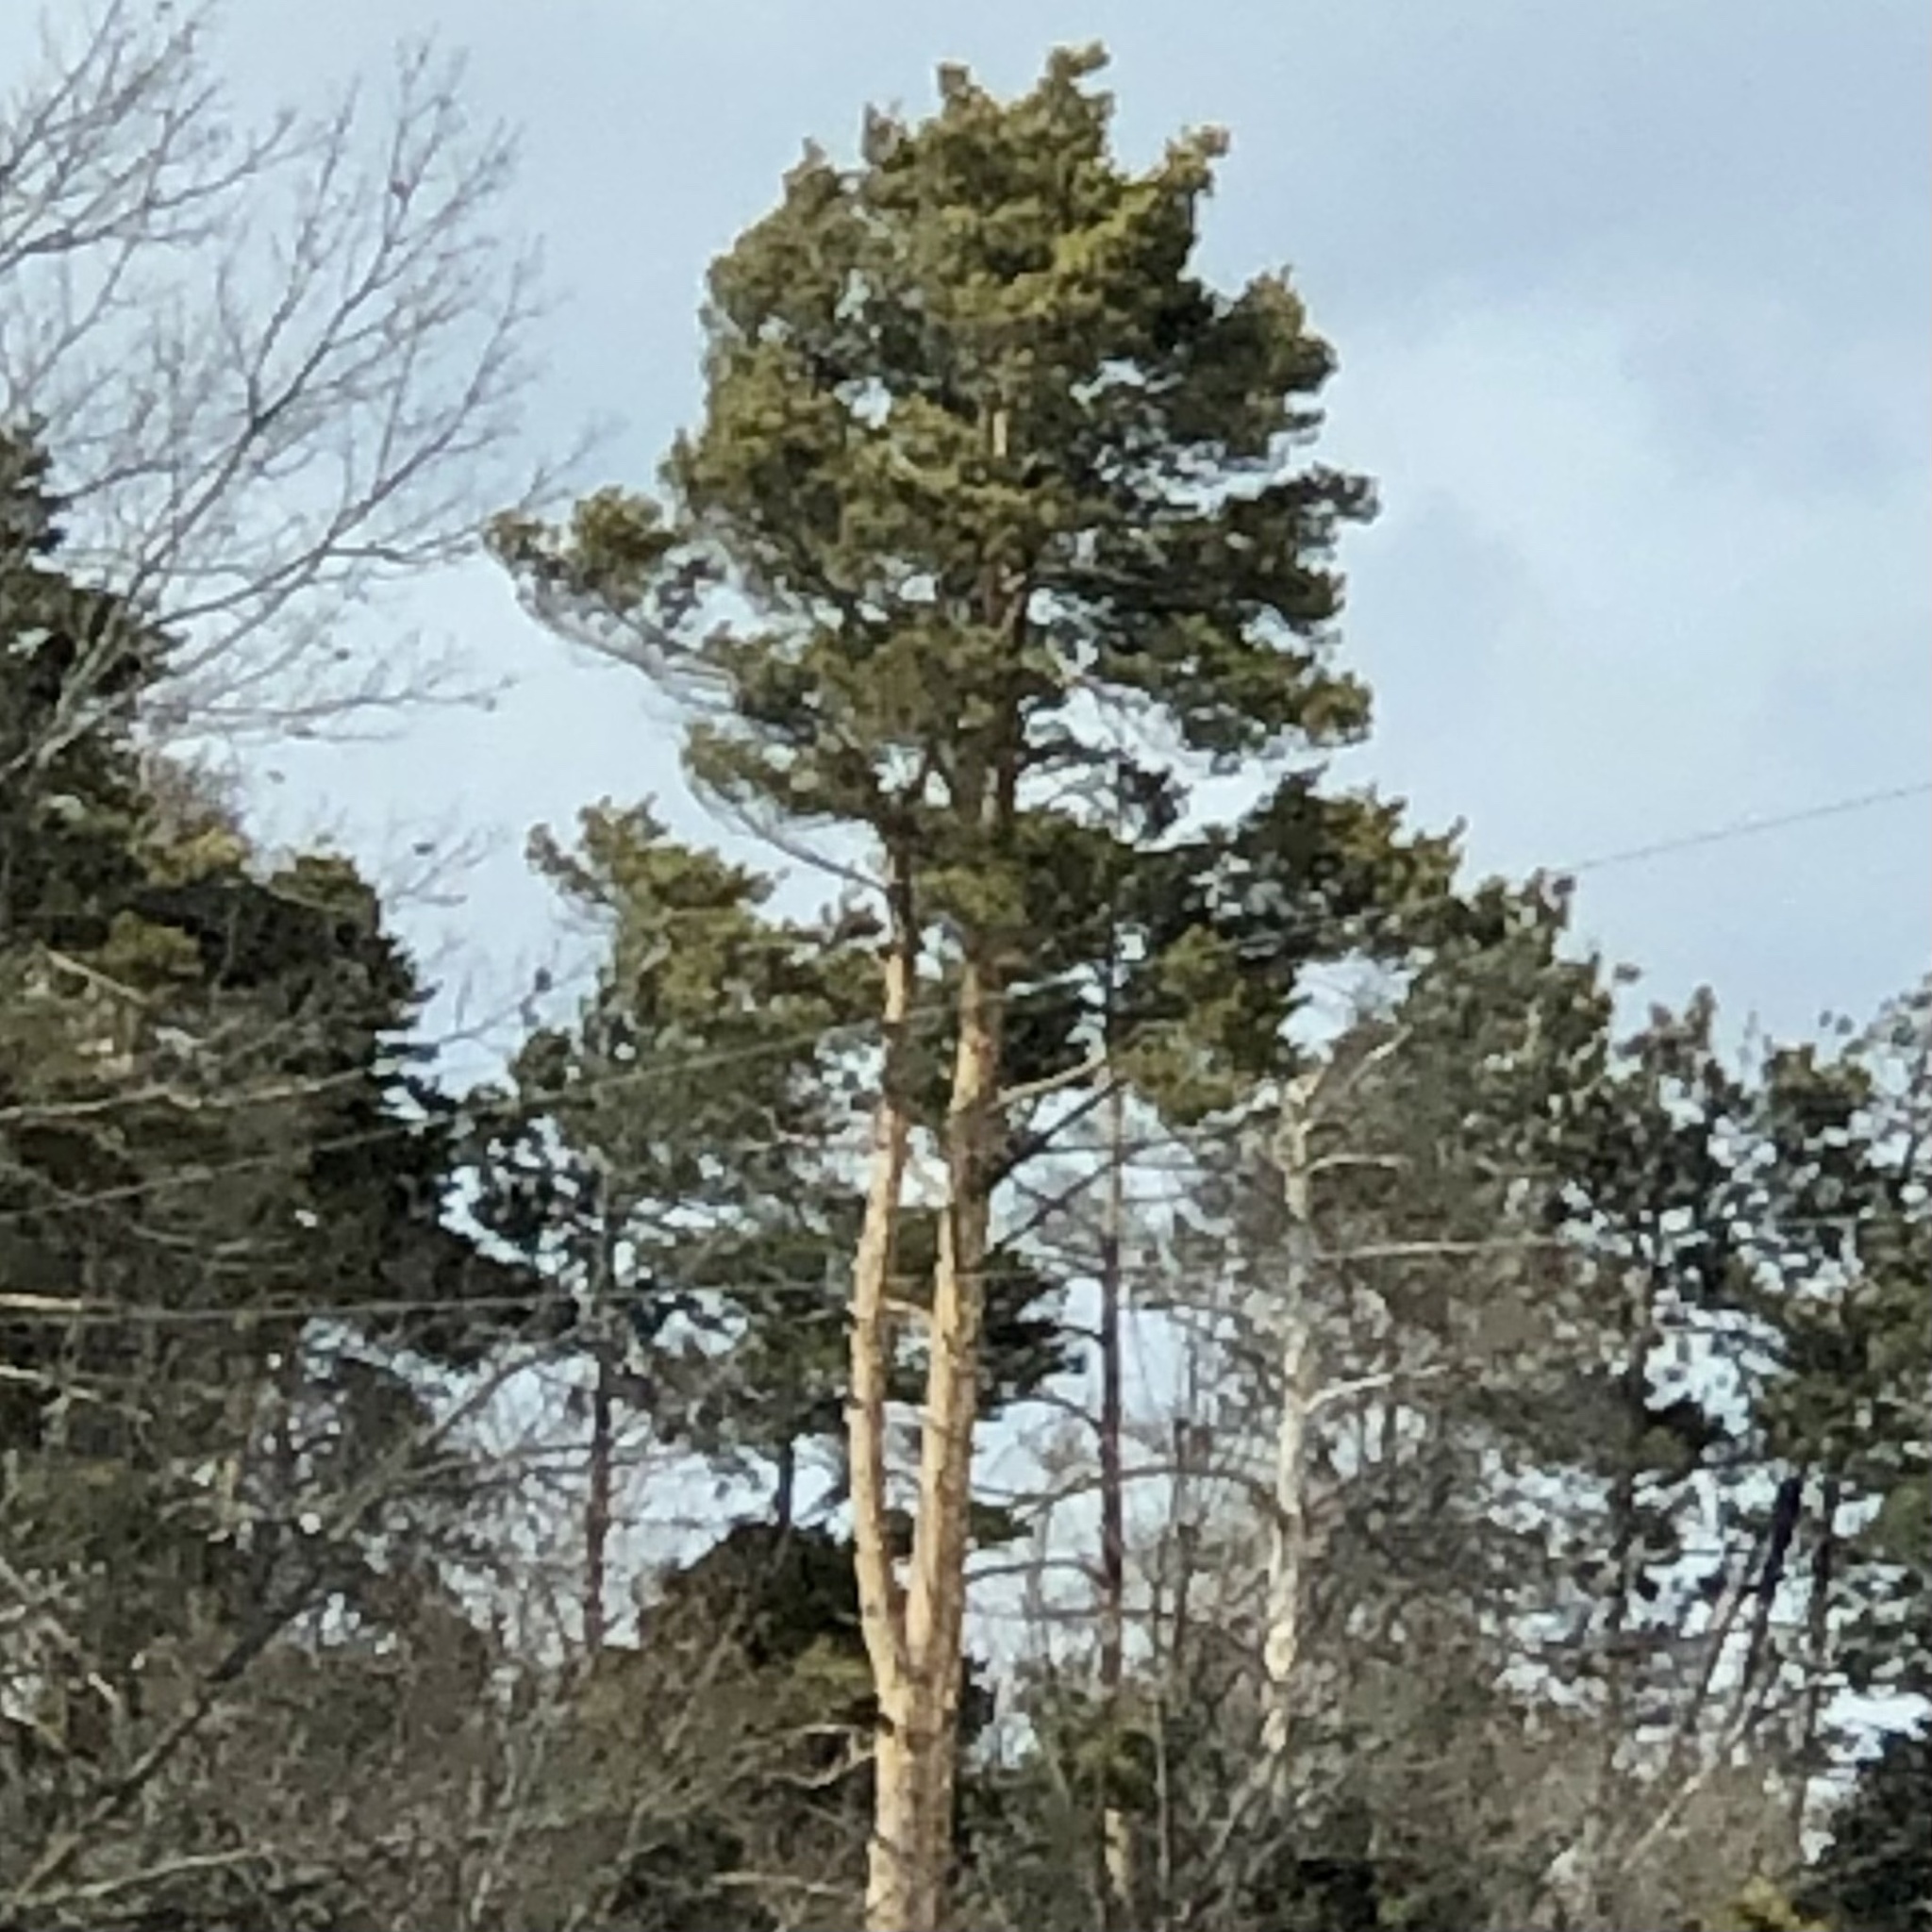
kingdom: Plantae
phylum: Tracheophyta
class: Pinopsida
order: Pinales
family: Pinaceae
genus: Pinus
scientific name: Pinus sylvestris
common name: Scots pine
